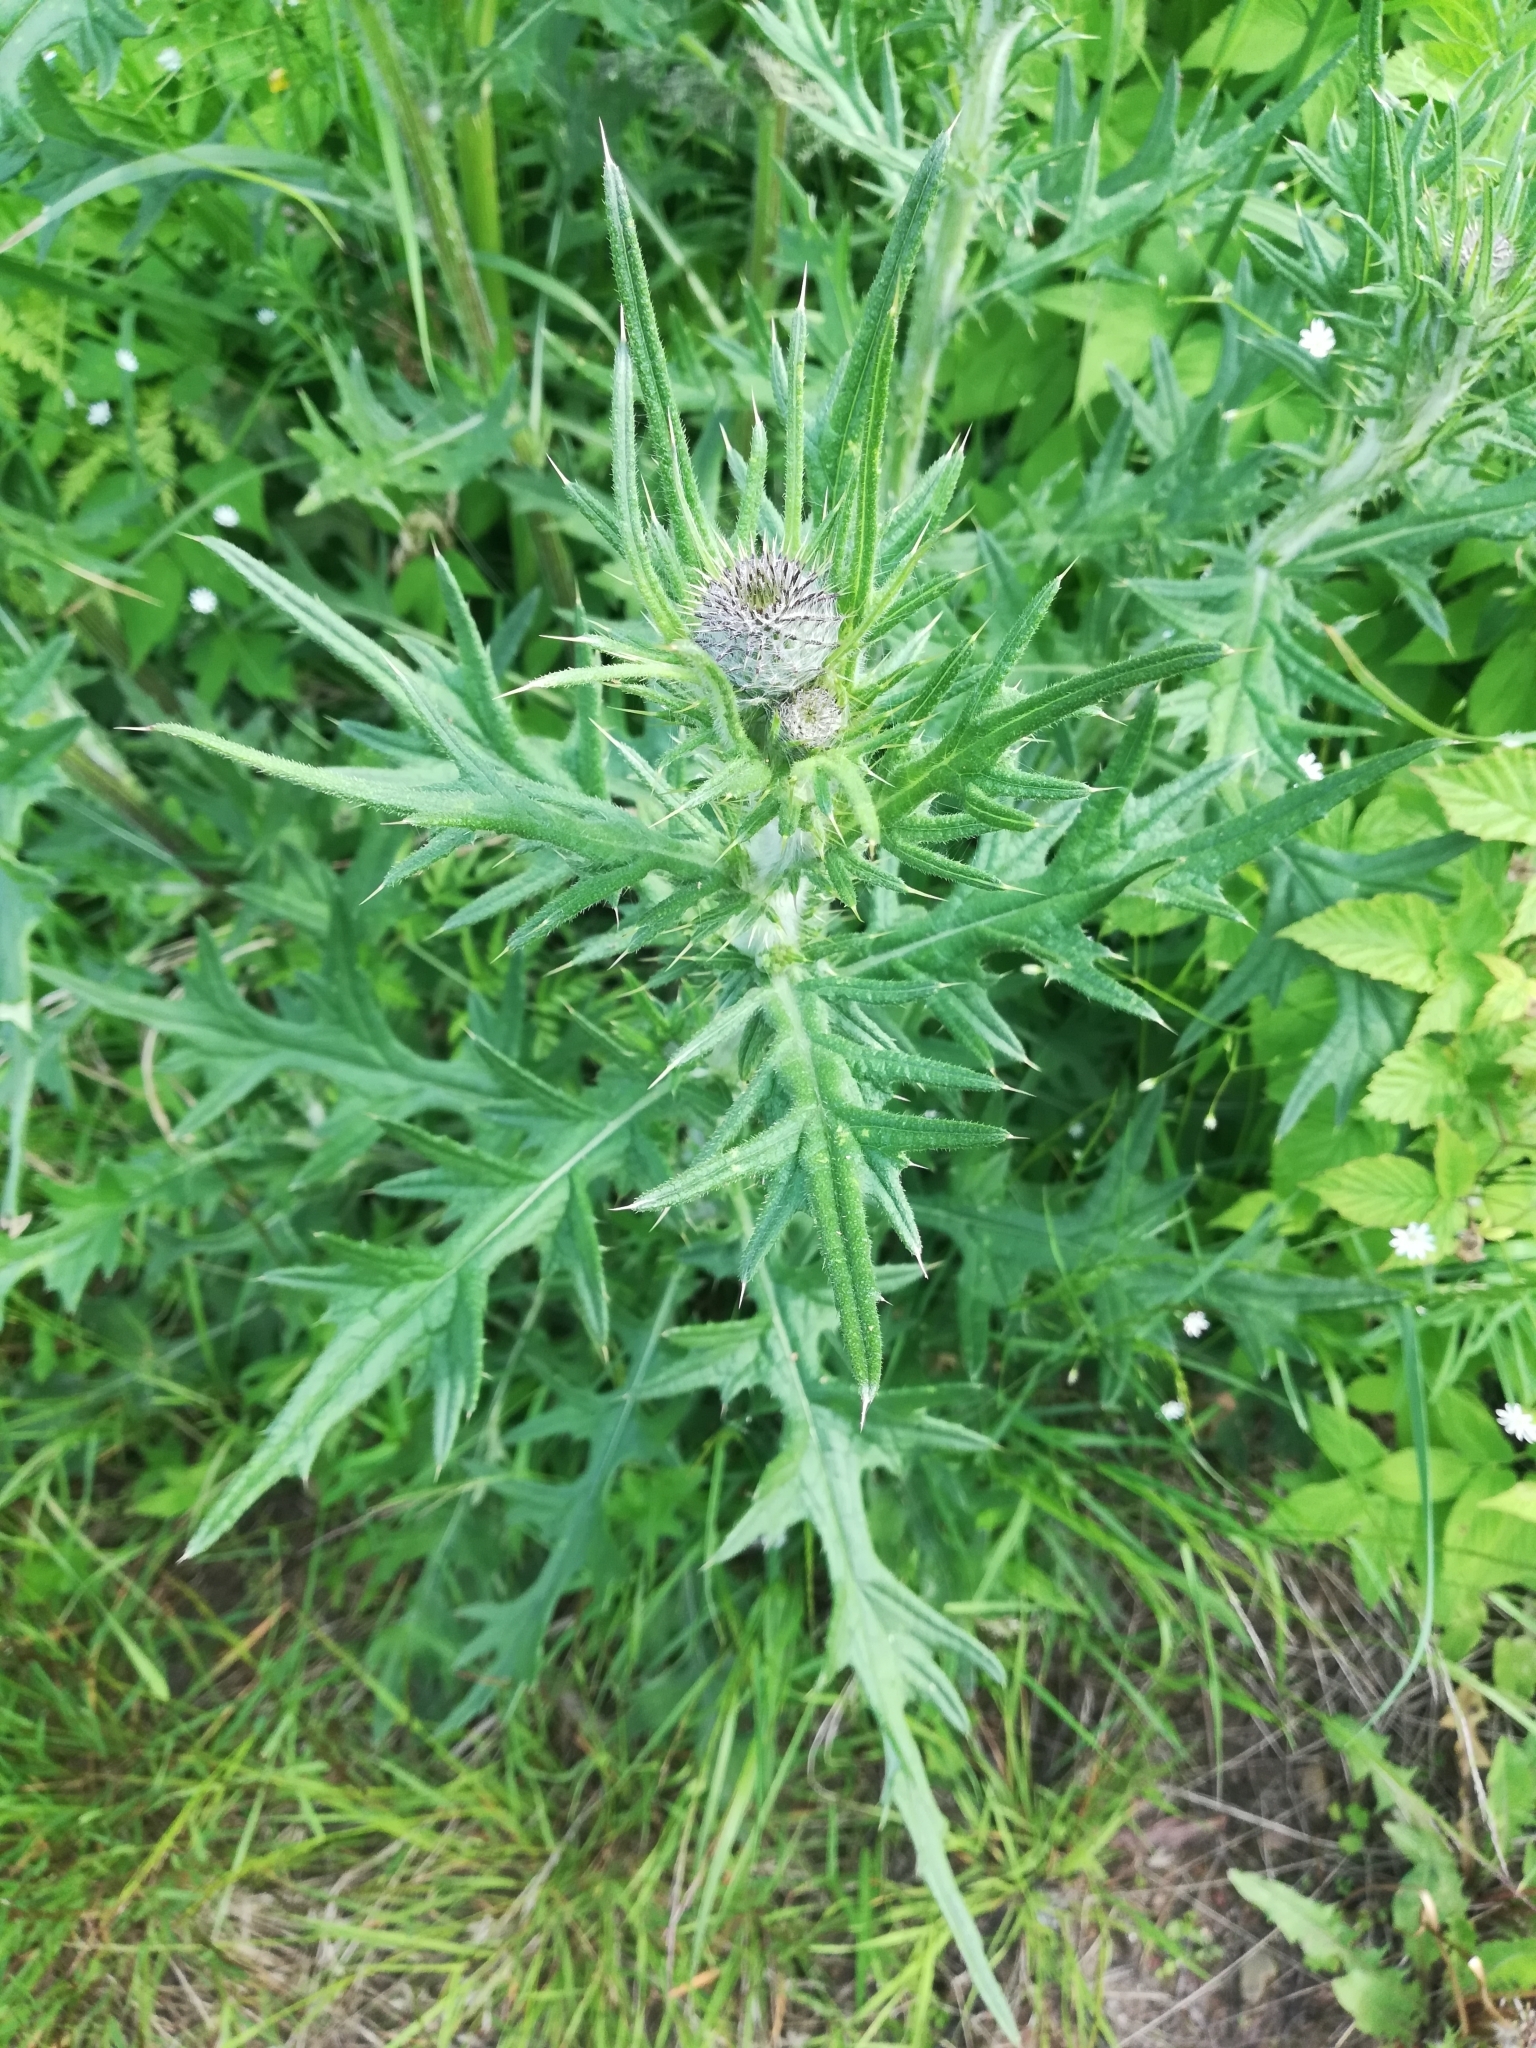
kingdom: Plantae
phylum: Tracheophyta
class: Magnoliopsida
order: Asterales
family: Asteraceae
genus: Cirsium
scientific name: Cirsium vulgare
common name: Bull thistle
